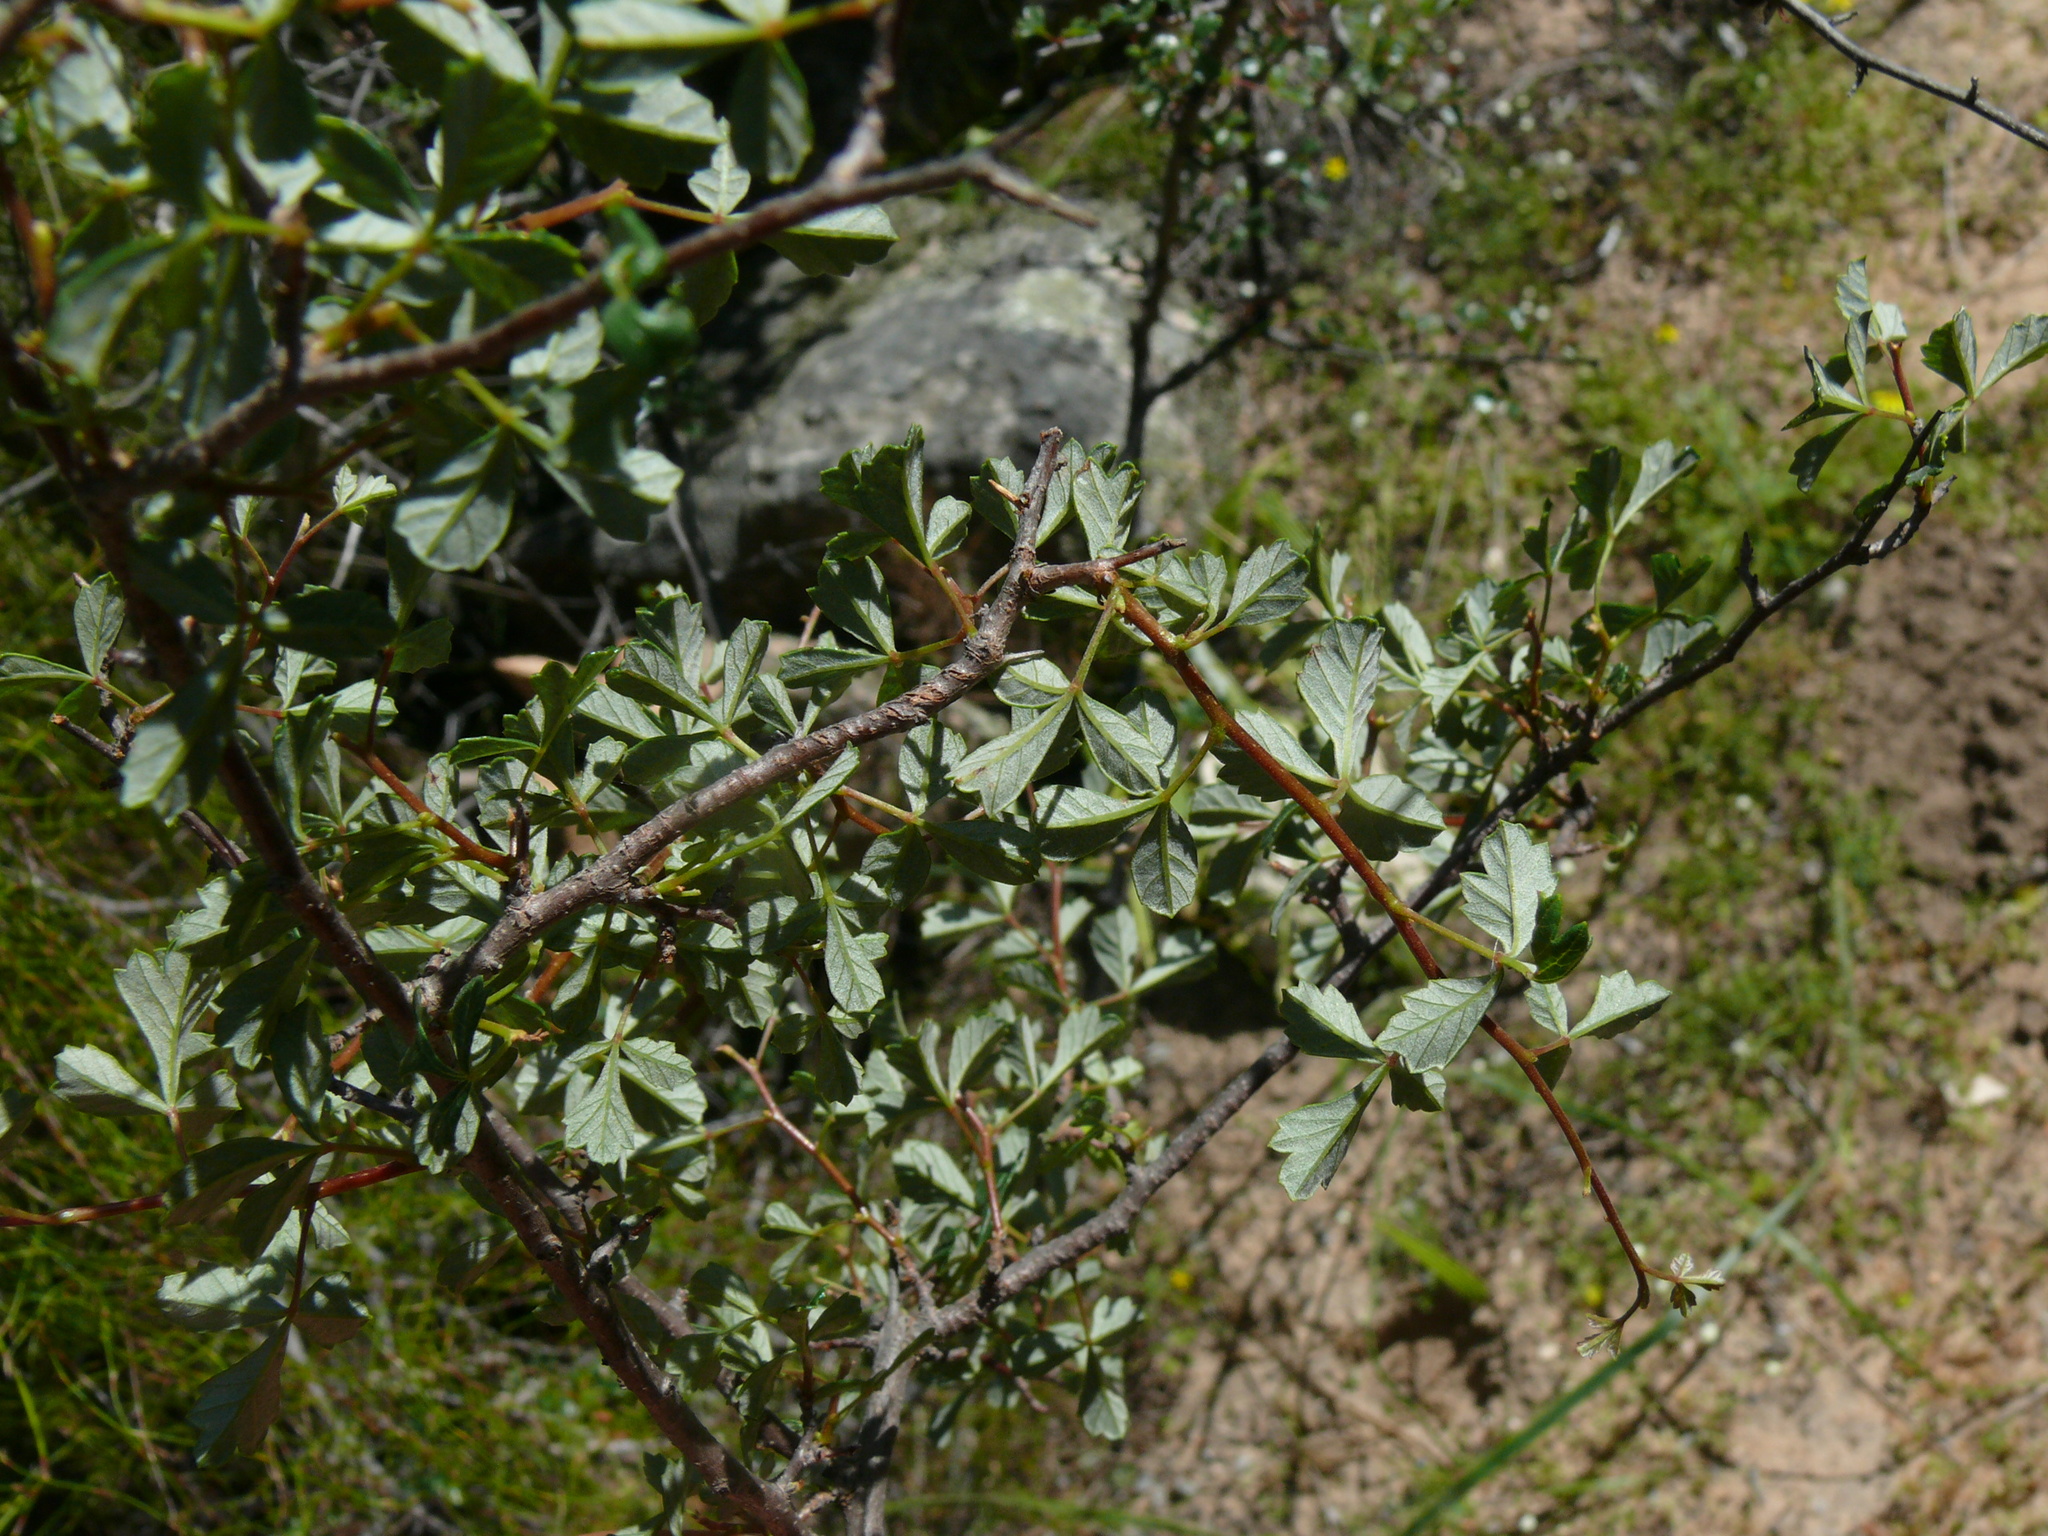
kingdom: Plantae
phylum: Tracheophyta
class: Magnoliopsida
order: Sapindales
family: Anacardiaceae
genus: Searsia
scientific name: Searsia dissecta
